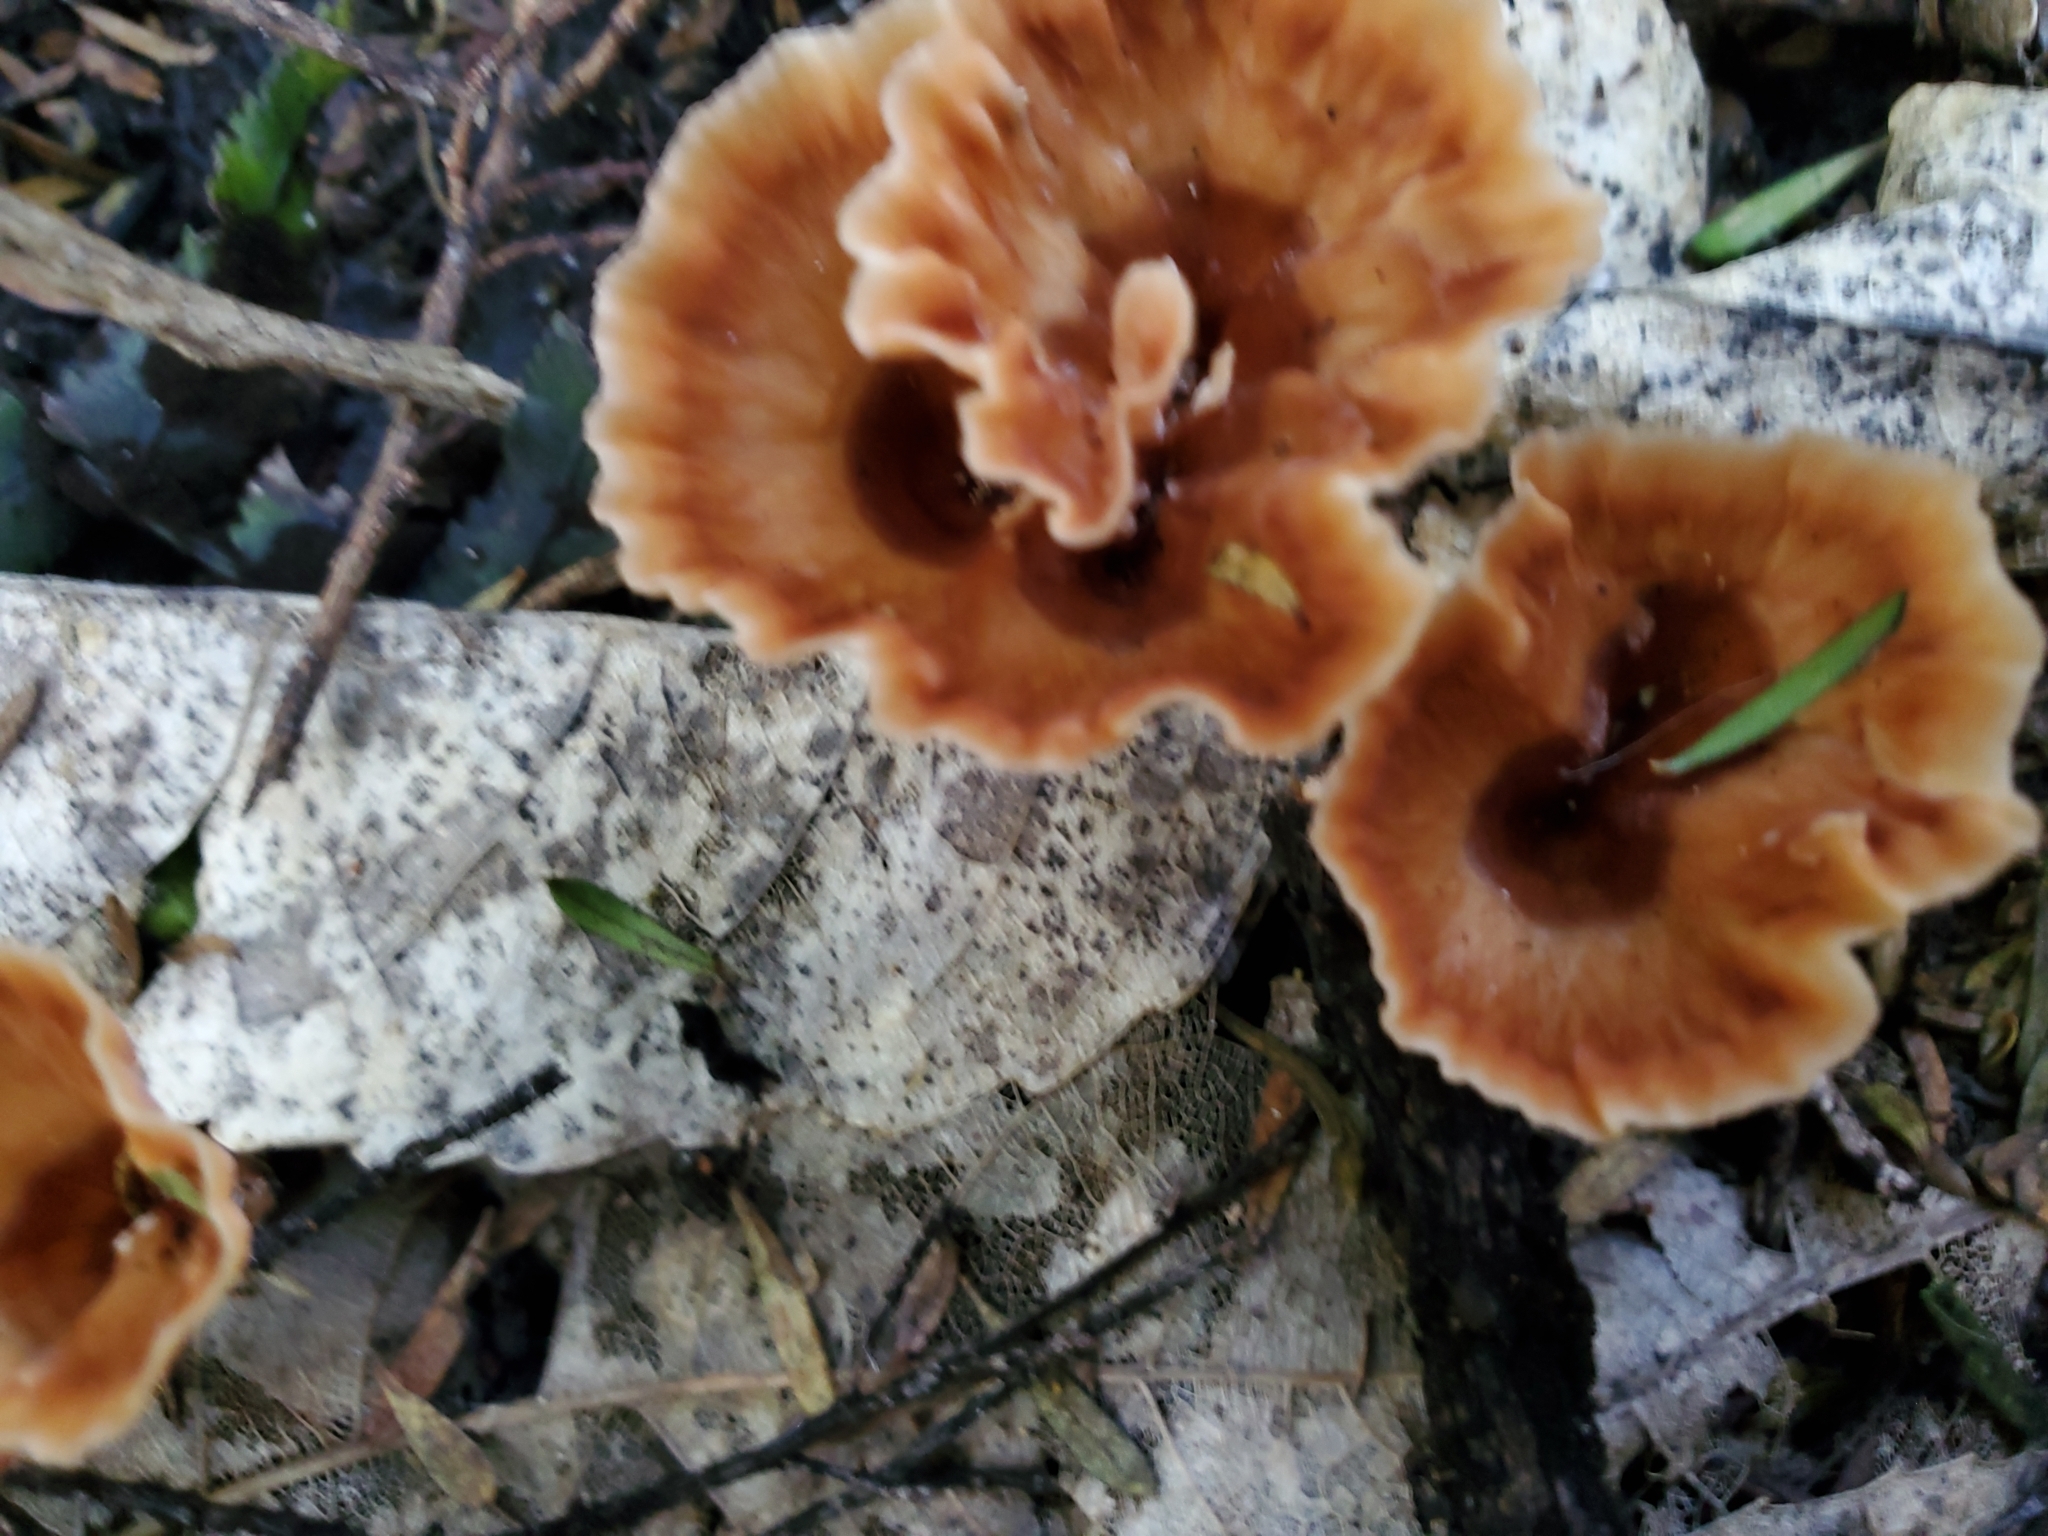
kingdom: Fungi
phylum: Basidiomycota
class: Agaricomycetes
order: Polyporales
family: Podoscyphaceae
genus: Podoscypha
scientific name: Podoscypha petalodes
